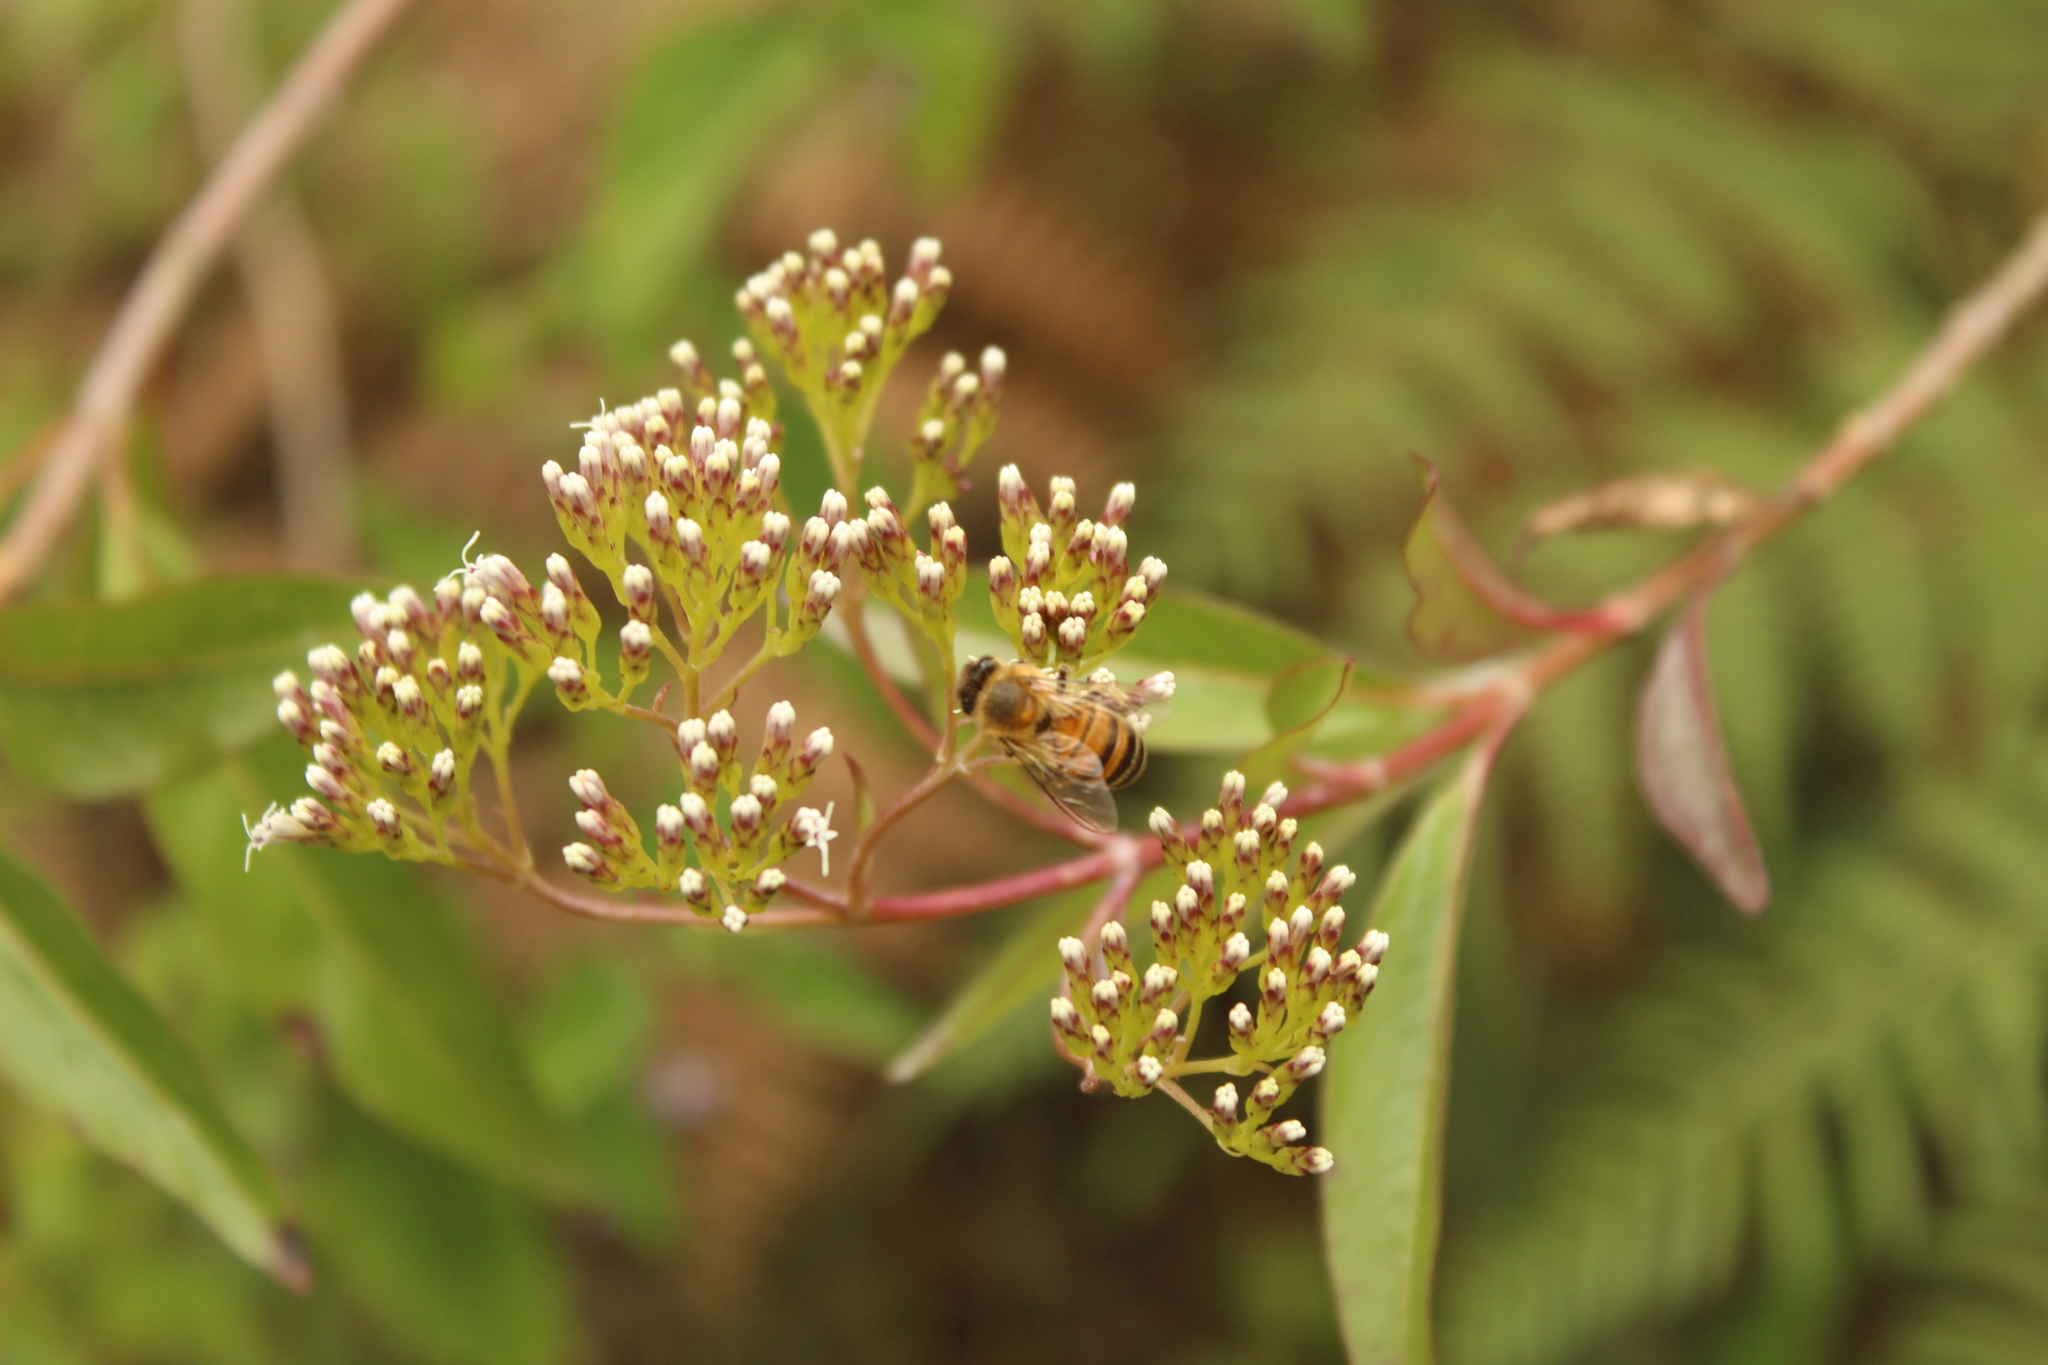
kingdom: Animalia
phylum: Arthropoda
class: Insecta
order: Hymenoptera
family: Apidae
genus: Apis
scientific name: Apis mellifera
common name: Honey bee
